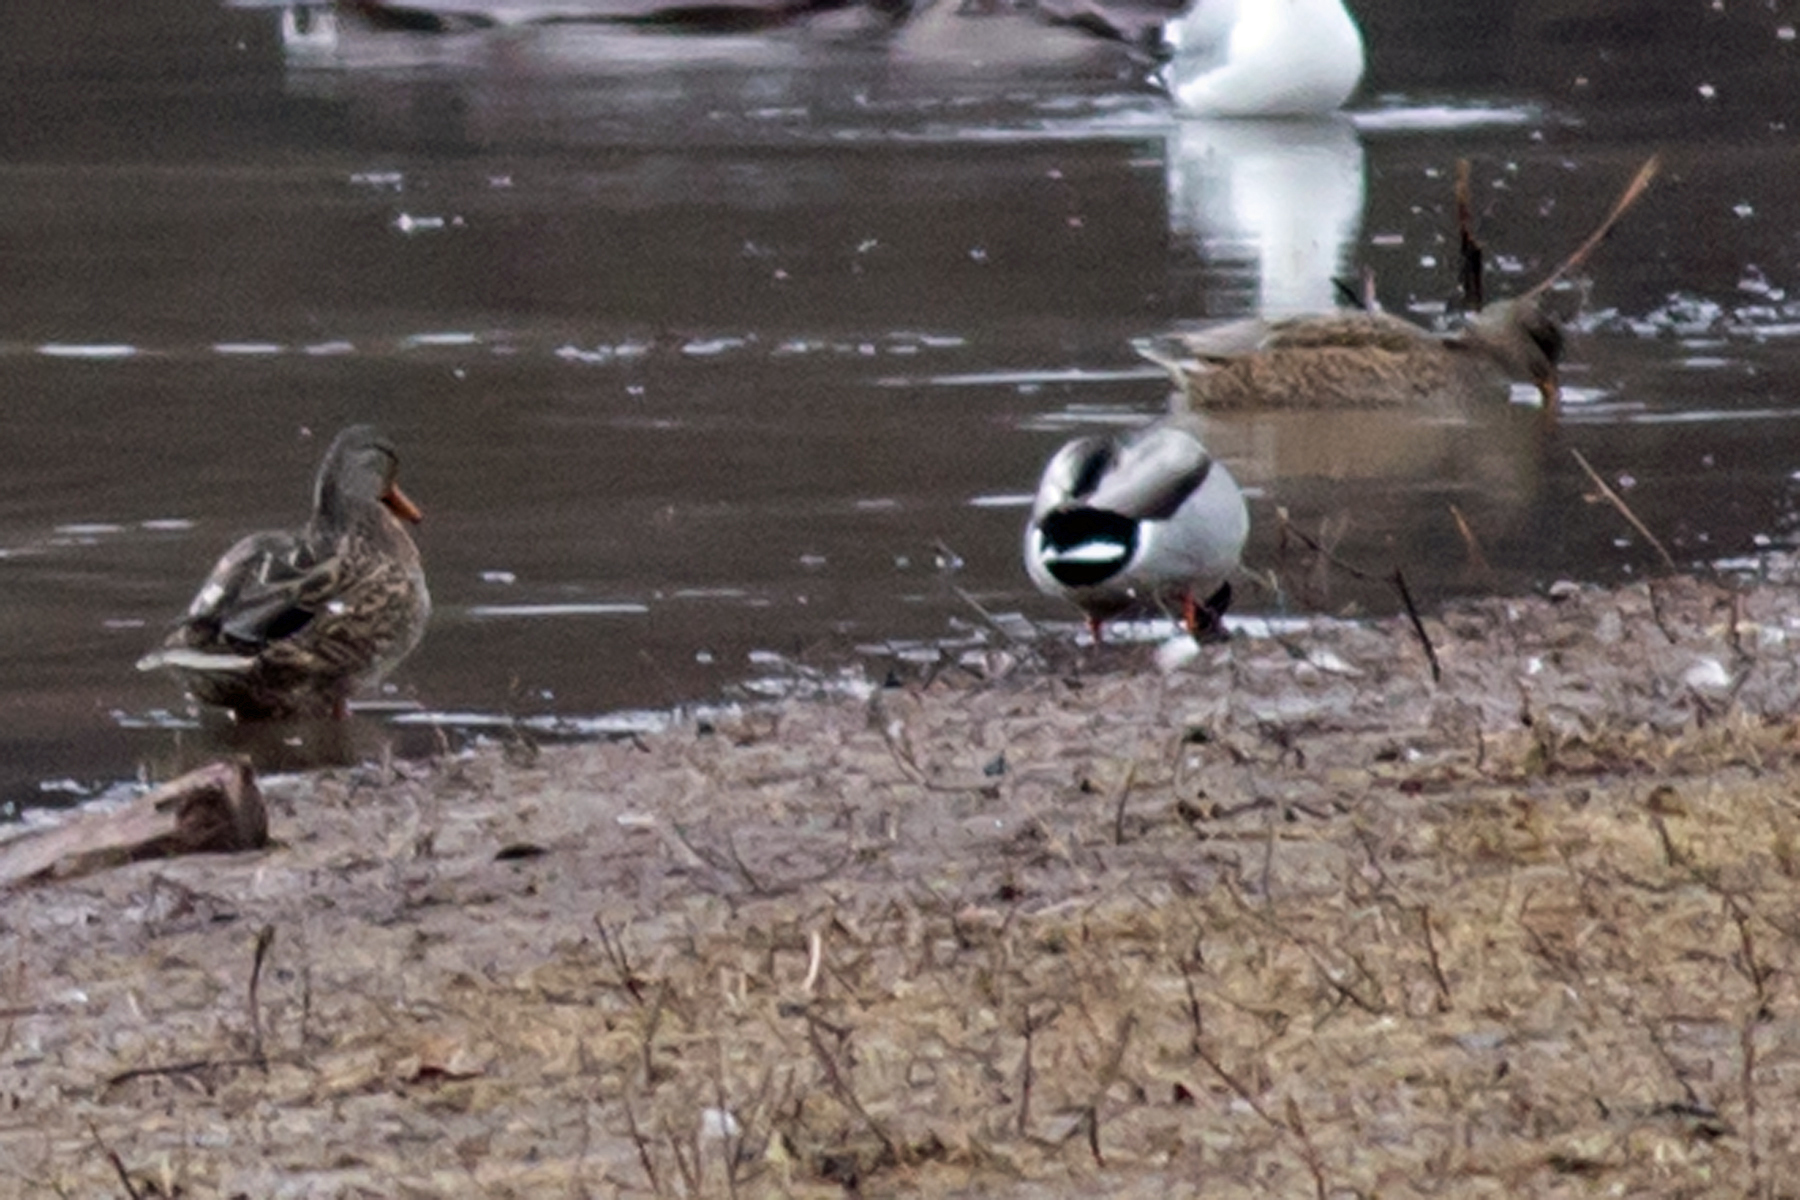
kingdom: Animalia
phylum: Chordata
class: Aves
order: Anseriformes
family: Anatidae
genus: Anas
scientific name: Anas platyrhynchos
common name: Mallard
